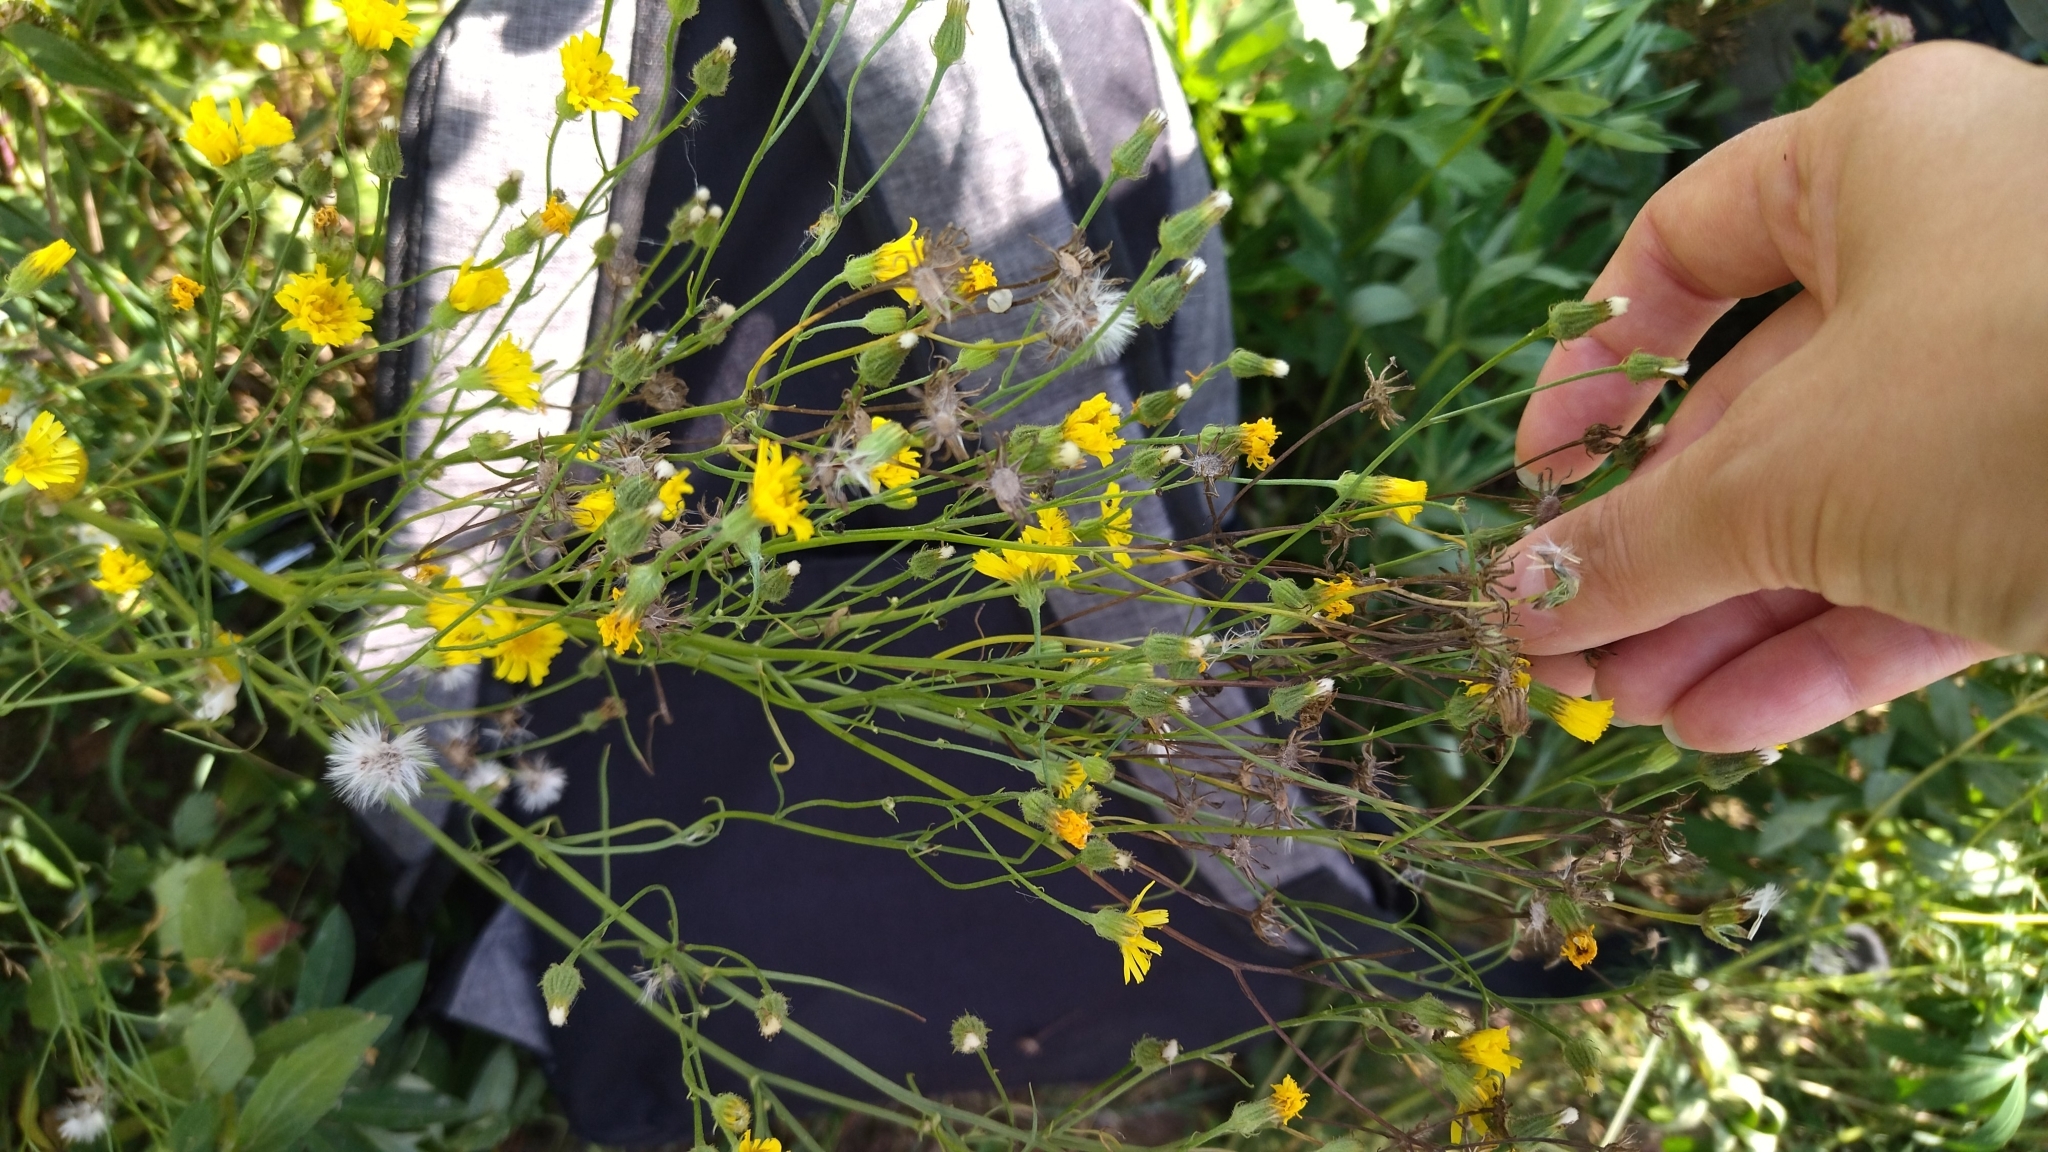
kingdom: Plantae
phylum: Tracheophyta
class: Magnoliopsida
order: Asterales
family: Asteraceae
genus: Crepis
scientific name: Crepis tectorum
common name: Narrow-leaved hawk's-beard
